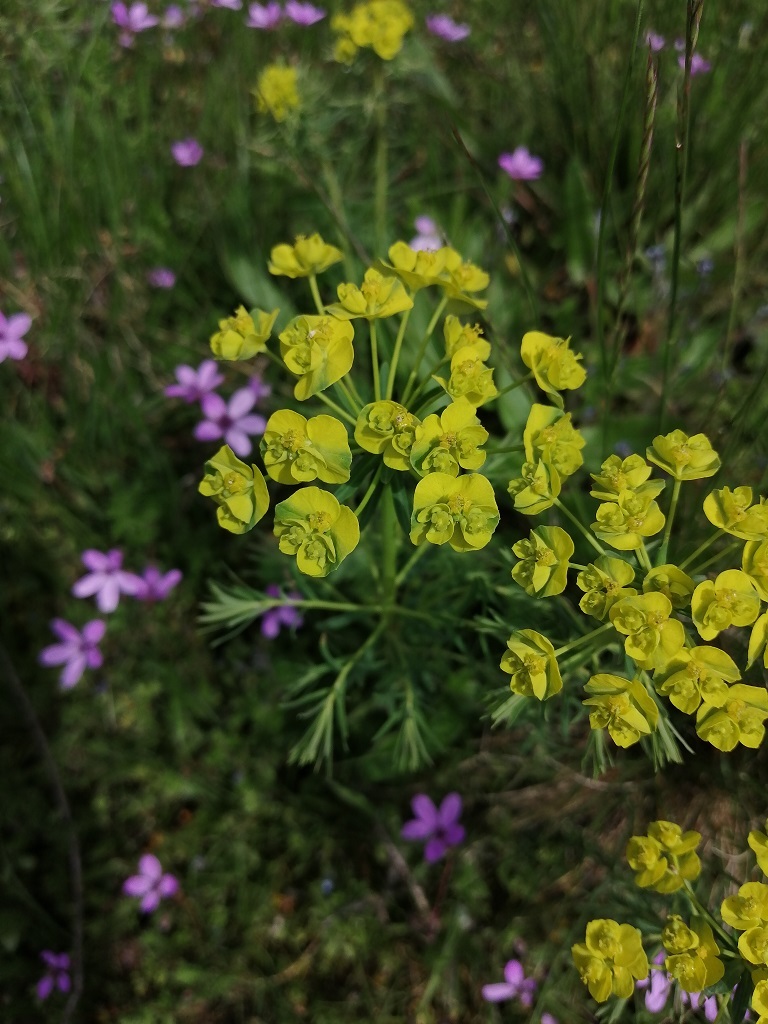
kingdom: Plantae
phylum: Tracheophyta
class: Magnoliopsida
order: Malpighiales
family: Euphorbiaceae
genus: Euphorbia
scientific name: Euphorbia cyparissias
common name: Cypress spurge
